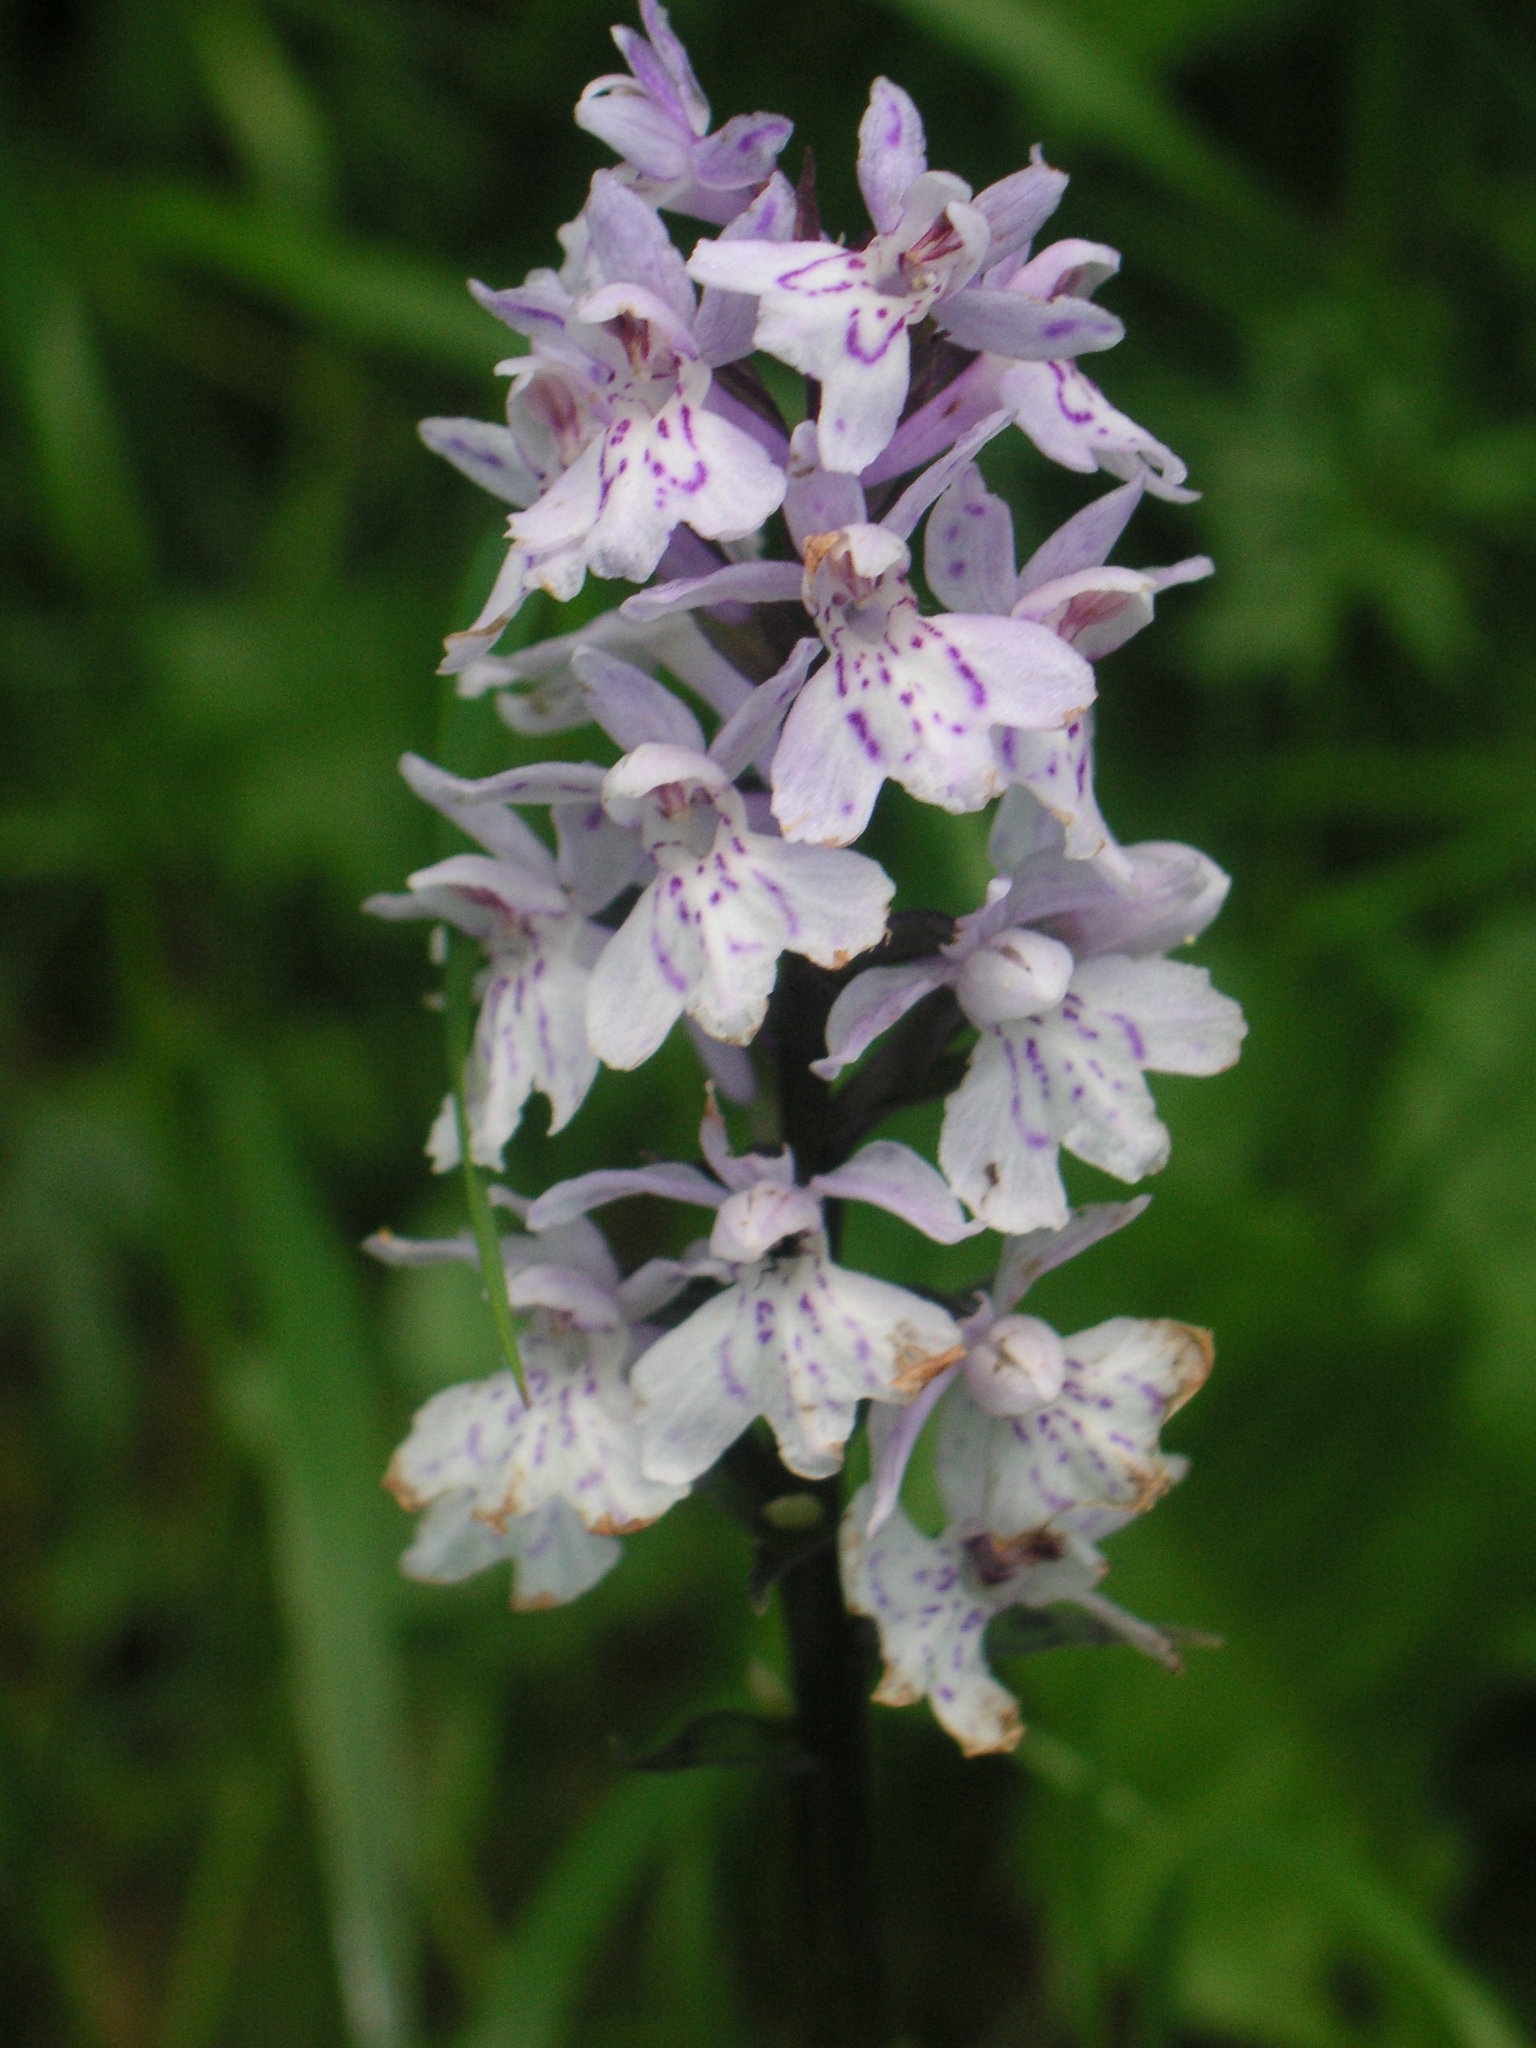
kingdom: Plantae
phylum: Tracheophyta
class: Liliopsida
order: Asparagales
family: Orchidaceae
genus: Dactylorhiza
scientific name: Dactylorhiza maculata
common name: Heath spotted-orchid
